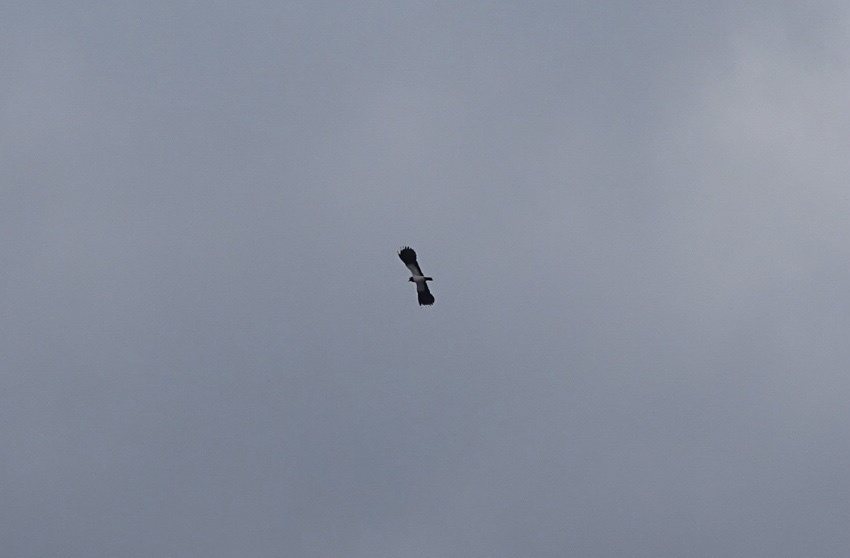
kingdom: Animalia
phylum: Chordata
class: Aves
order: Charadriiformes
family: Charadriidae
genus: Vanellus
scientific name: Vanellus vanellus
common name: Northern lapwing
